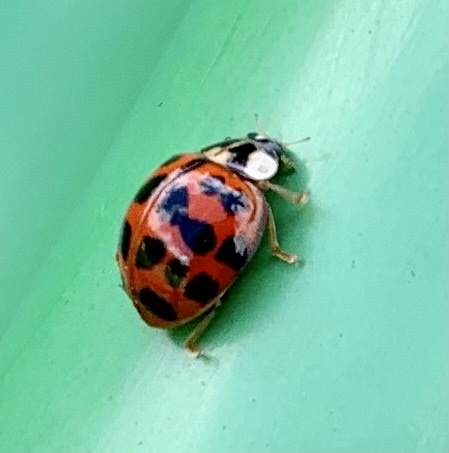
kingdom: Animalia
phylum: Arthropoda
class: Insecta
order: Coleoptera
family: Coccinellidae
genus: Harmonia
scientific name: Harmonia axyridis
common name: Harlequin ladybird
